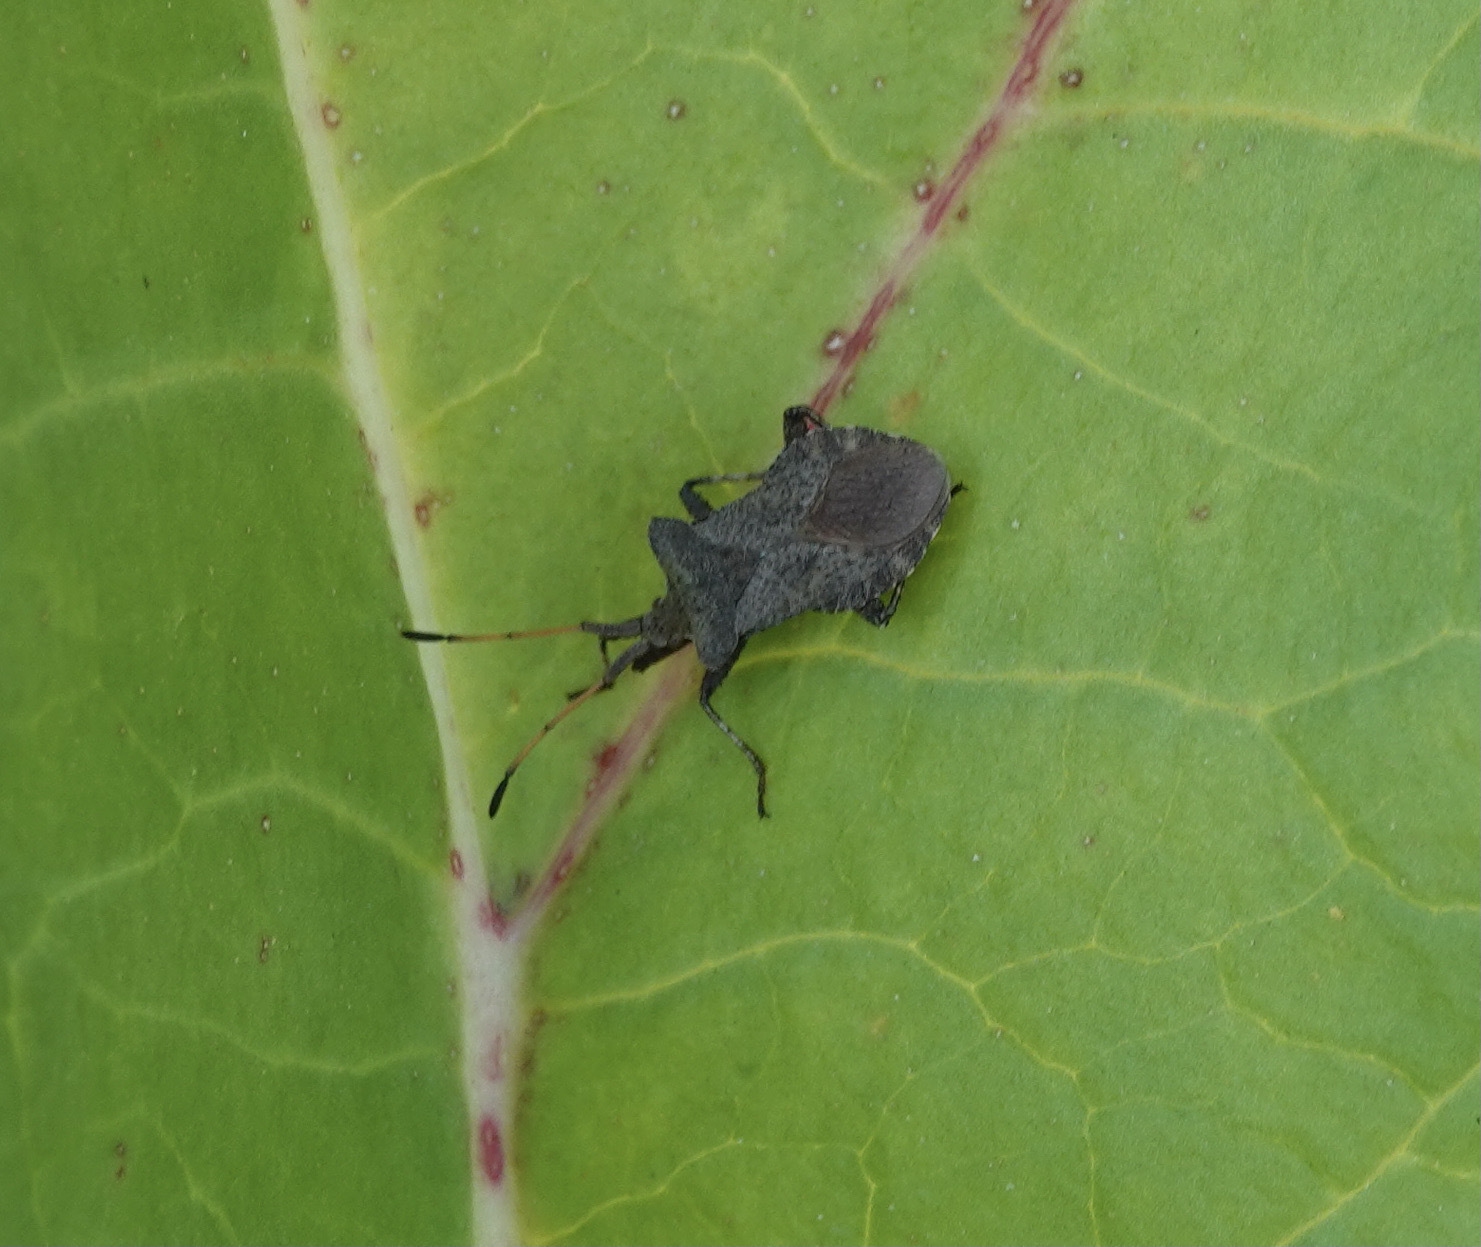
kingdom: Animalia
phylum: Arthropoda
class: Insecta
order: Hemiptera
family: Coreidae
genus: Coreus
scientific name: Coreus marginatus
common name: Dock bug
